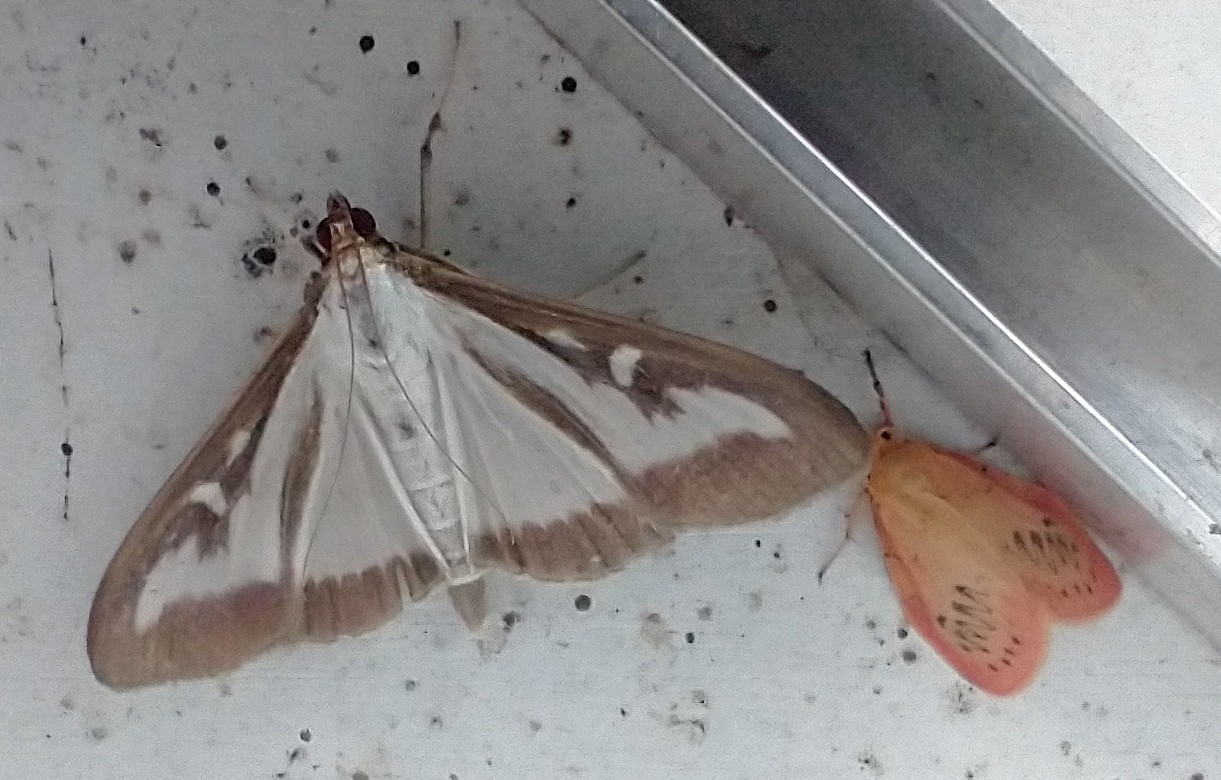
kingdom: Animalia
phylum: Arthropoda
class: Insecta
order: Lepidoptera
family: Crambidae
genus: Cydalima
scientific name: Cydalima perspectalis
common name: Box tree moth
